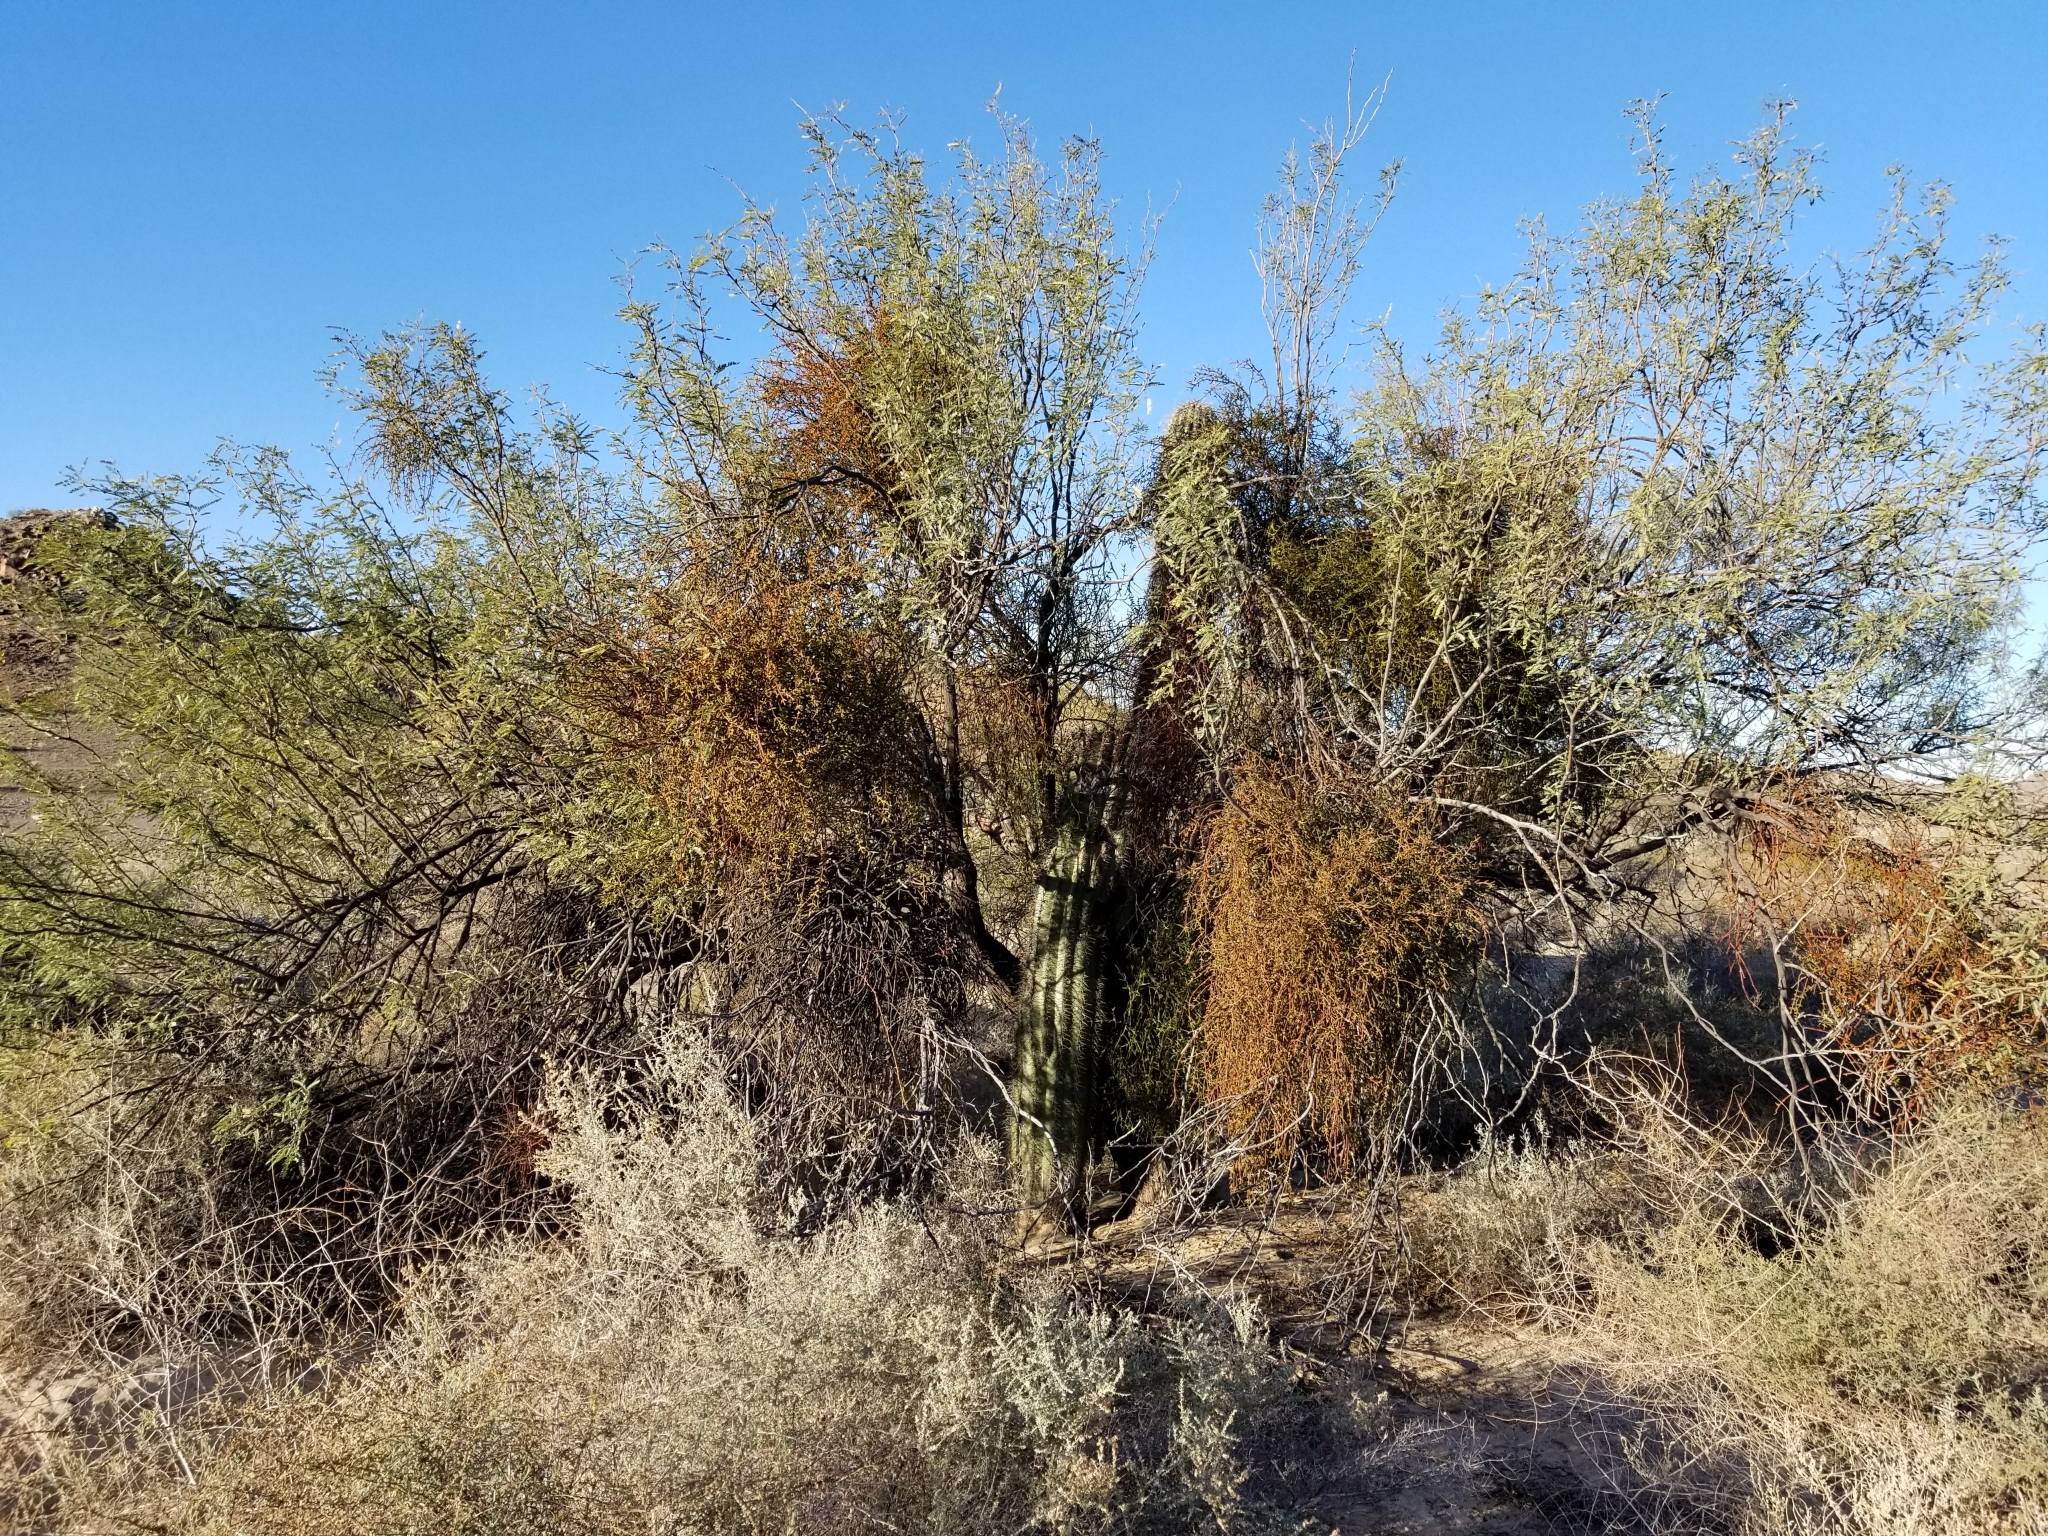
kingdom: Plantae
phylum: Tracheophyta
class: Magnoliopsida
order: Fabales
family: Fabaceae
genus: Prosopis
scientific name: Prosopis glandulosa
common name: Honey mesquite
